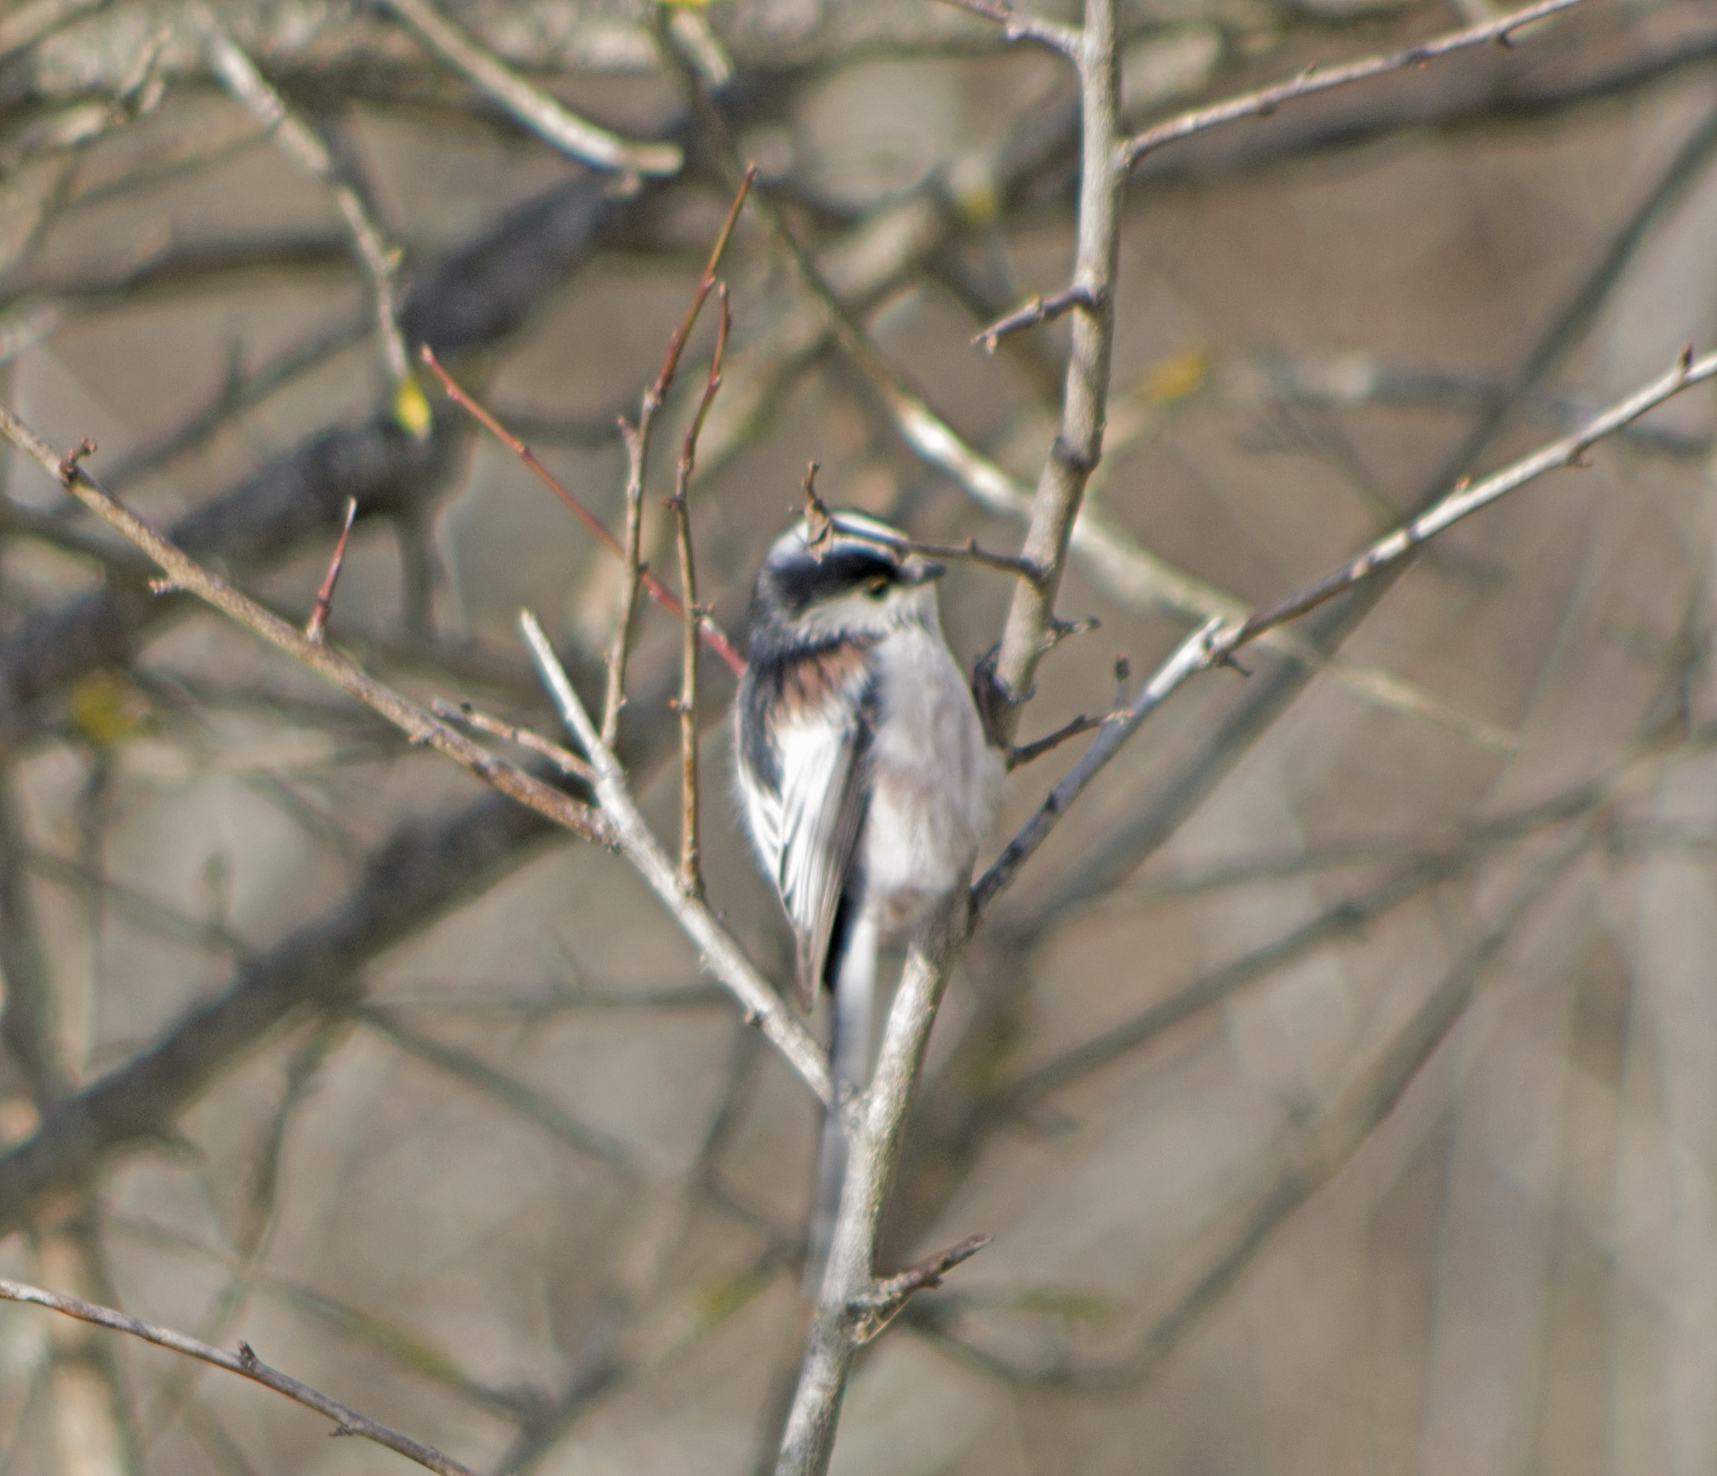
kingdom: Animalia
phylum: Chordata
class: Aves
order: Passeriformes
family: Aegithalidae
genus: Aegithalos
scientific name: Aegithalos caudatus
